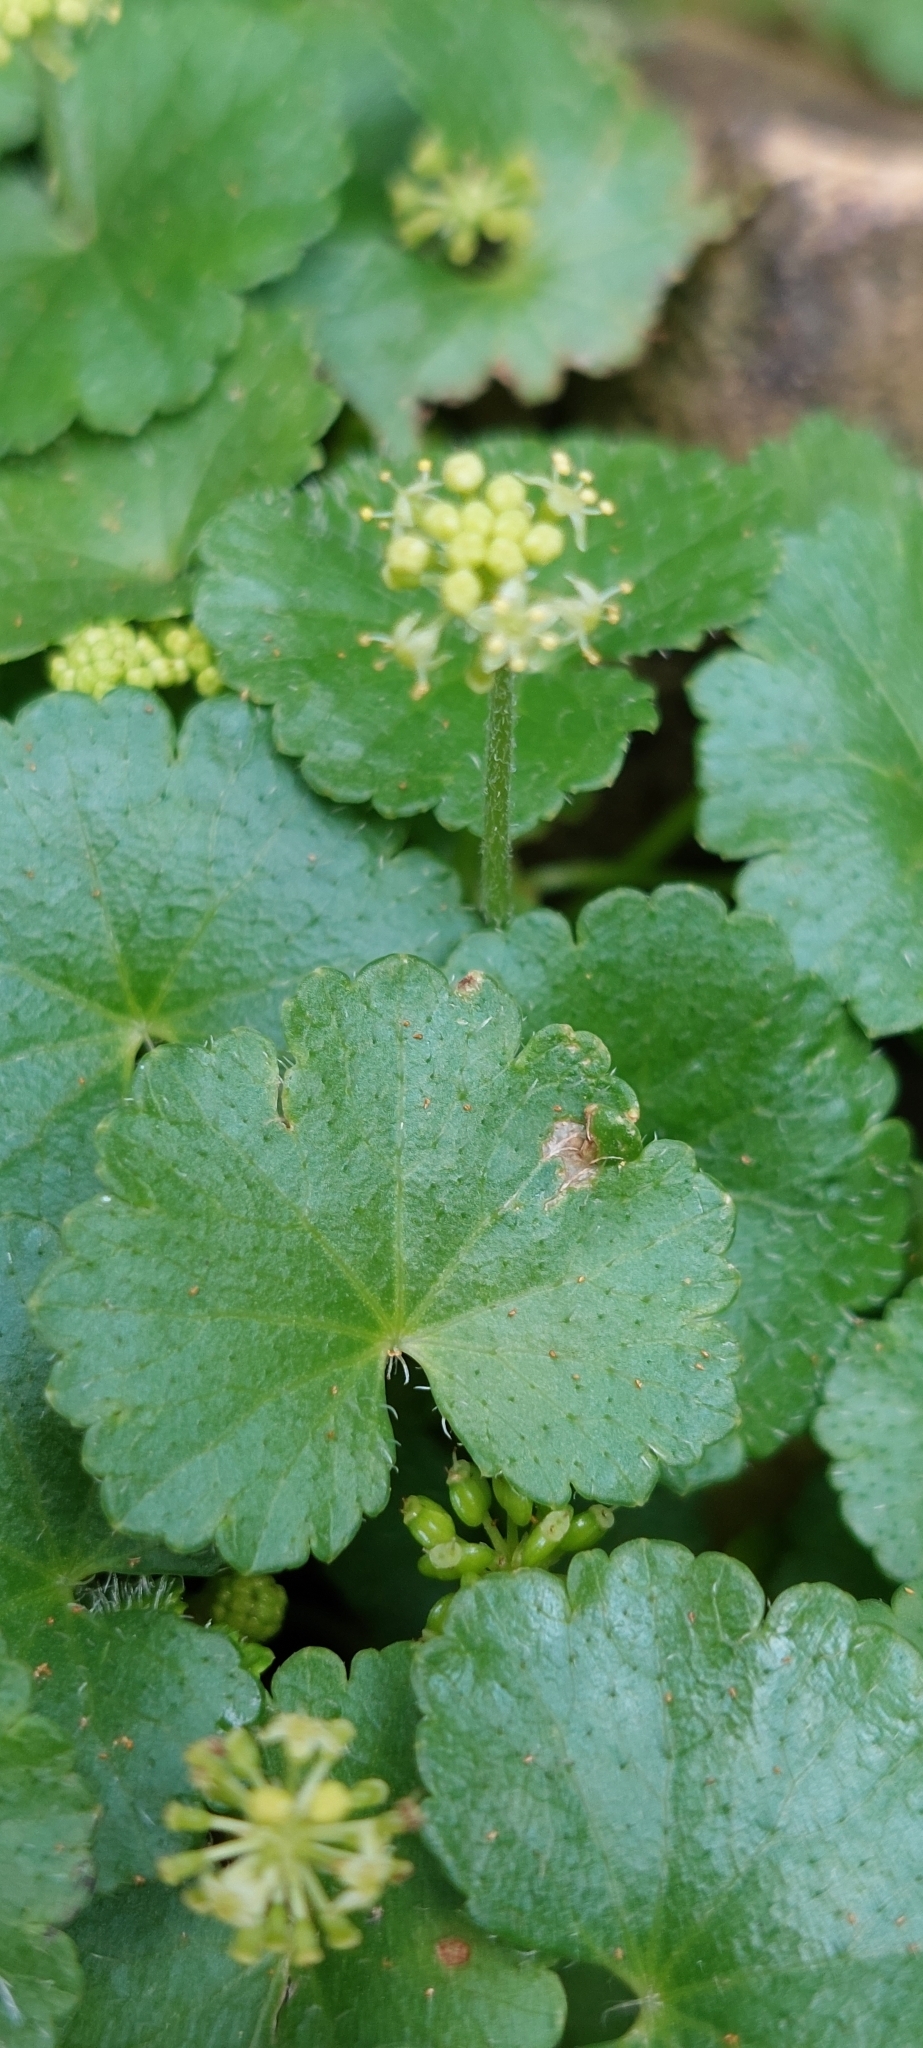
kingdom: Plantae
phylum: Tracheophyta
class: Magnoliopsida
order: Apiales
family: Araliaceae
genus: Hydrocotyle
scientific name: Hydrocotyle bonplandii
